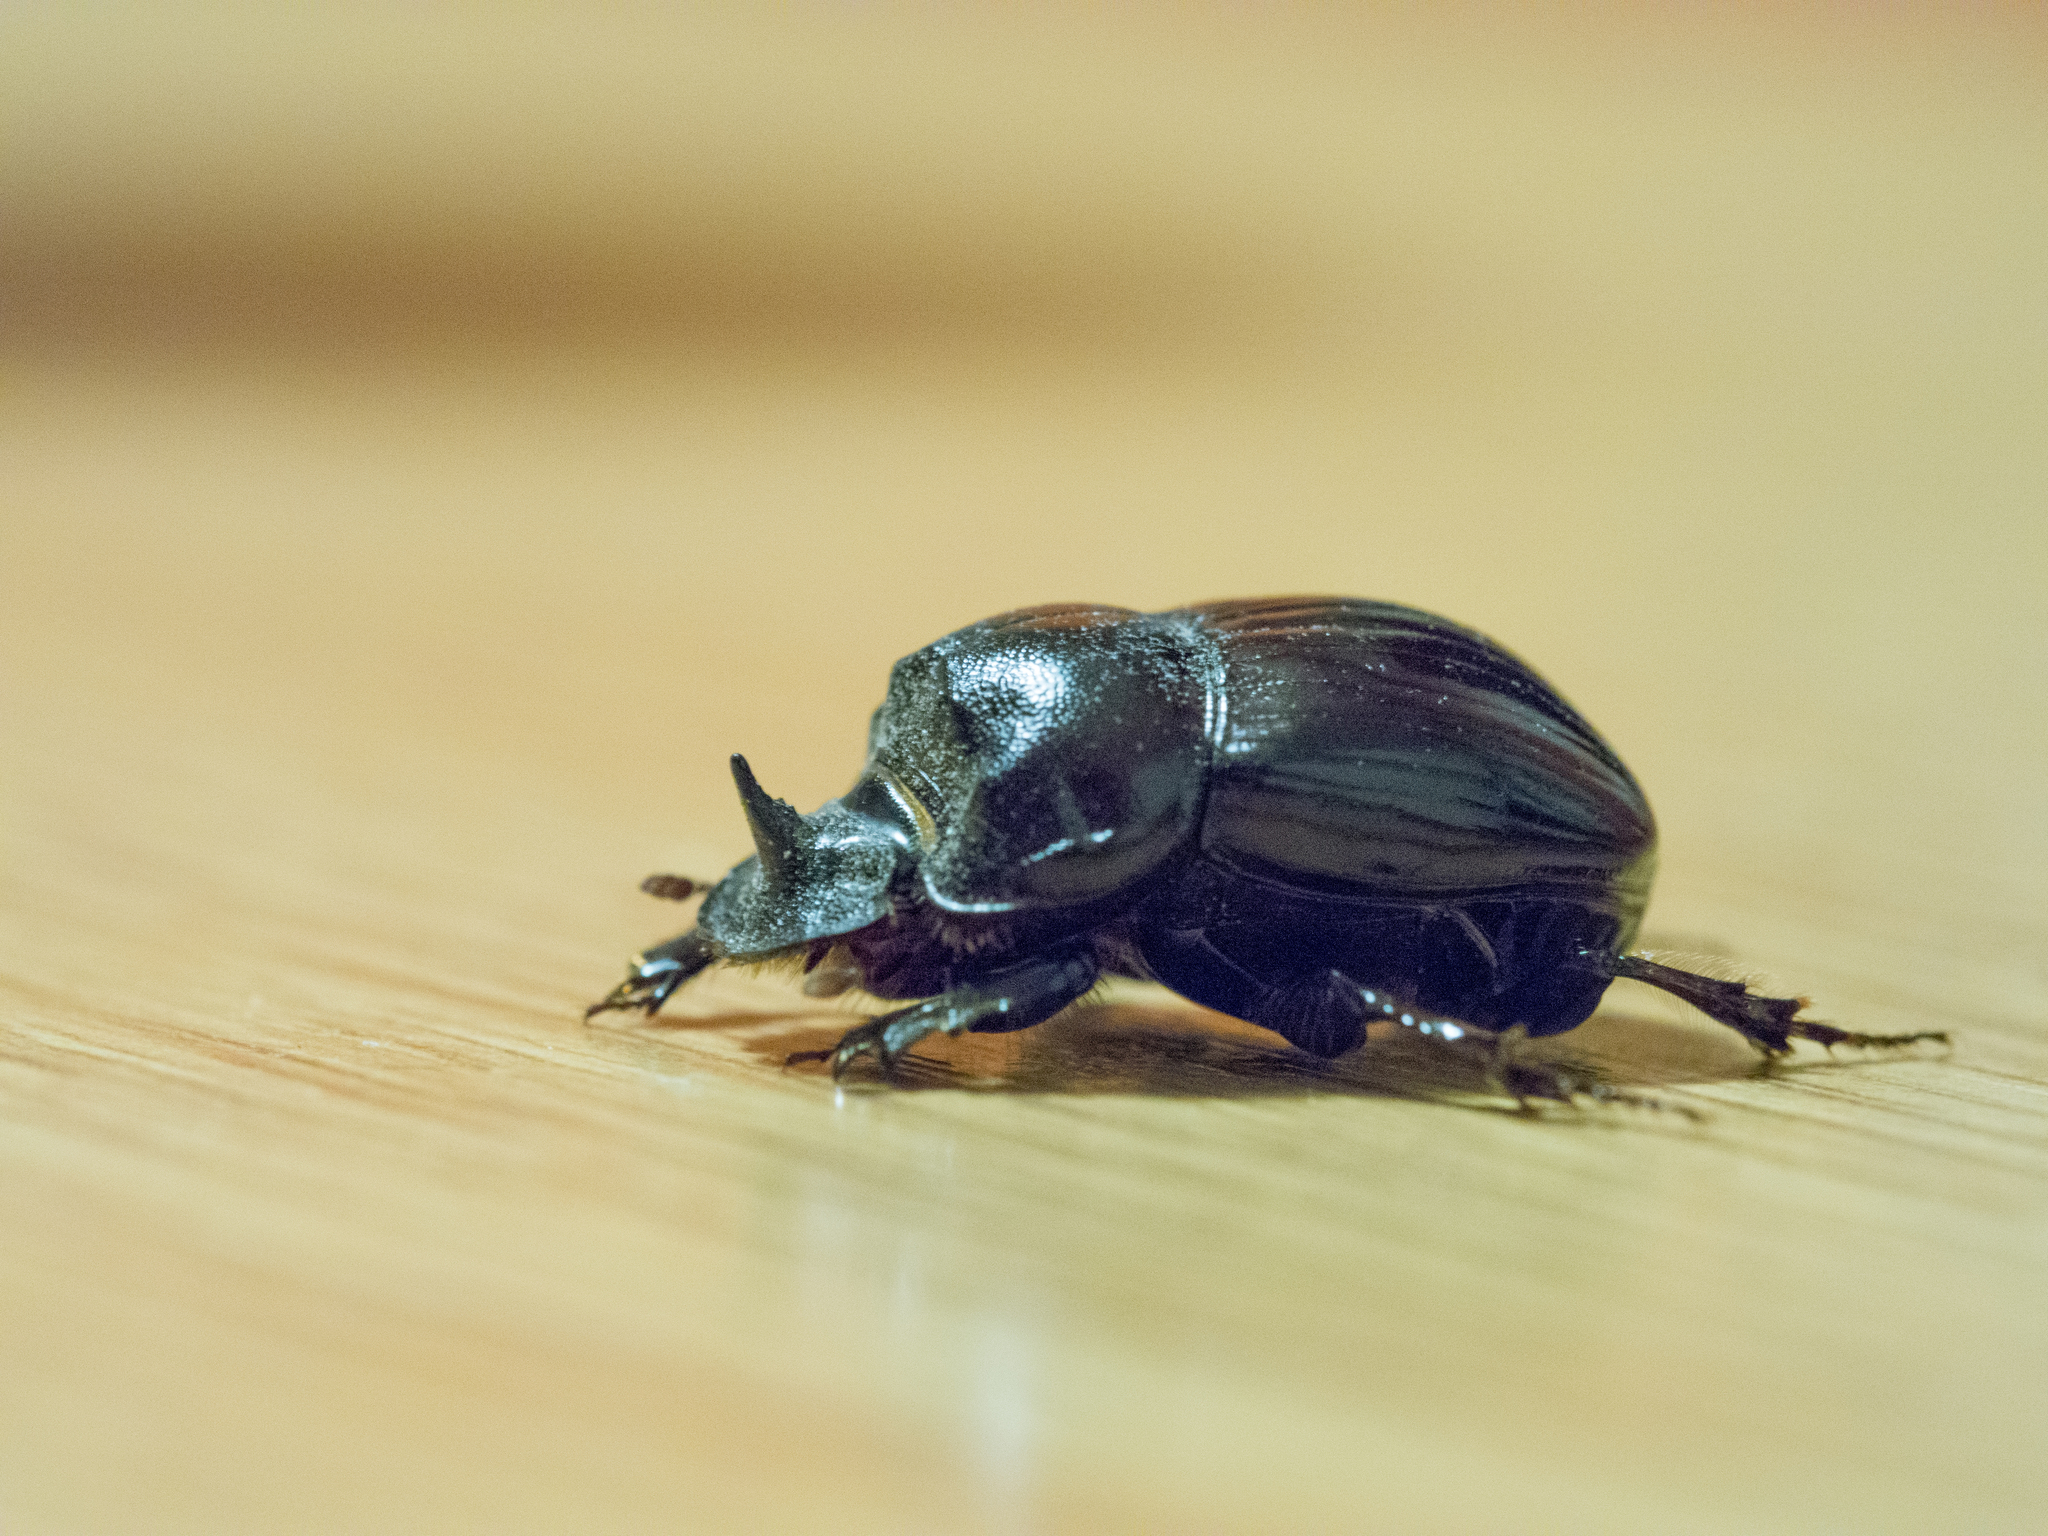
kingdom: Animalia
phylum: Arthropoda
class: Insecta
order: Coleoptera
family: Scarabaeidae
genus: Copris
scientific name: Copris lunaris
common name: Horned dung beetle
